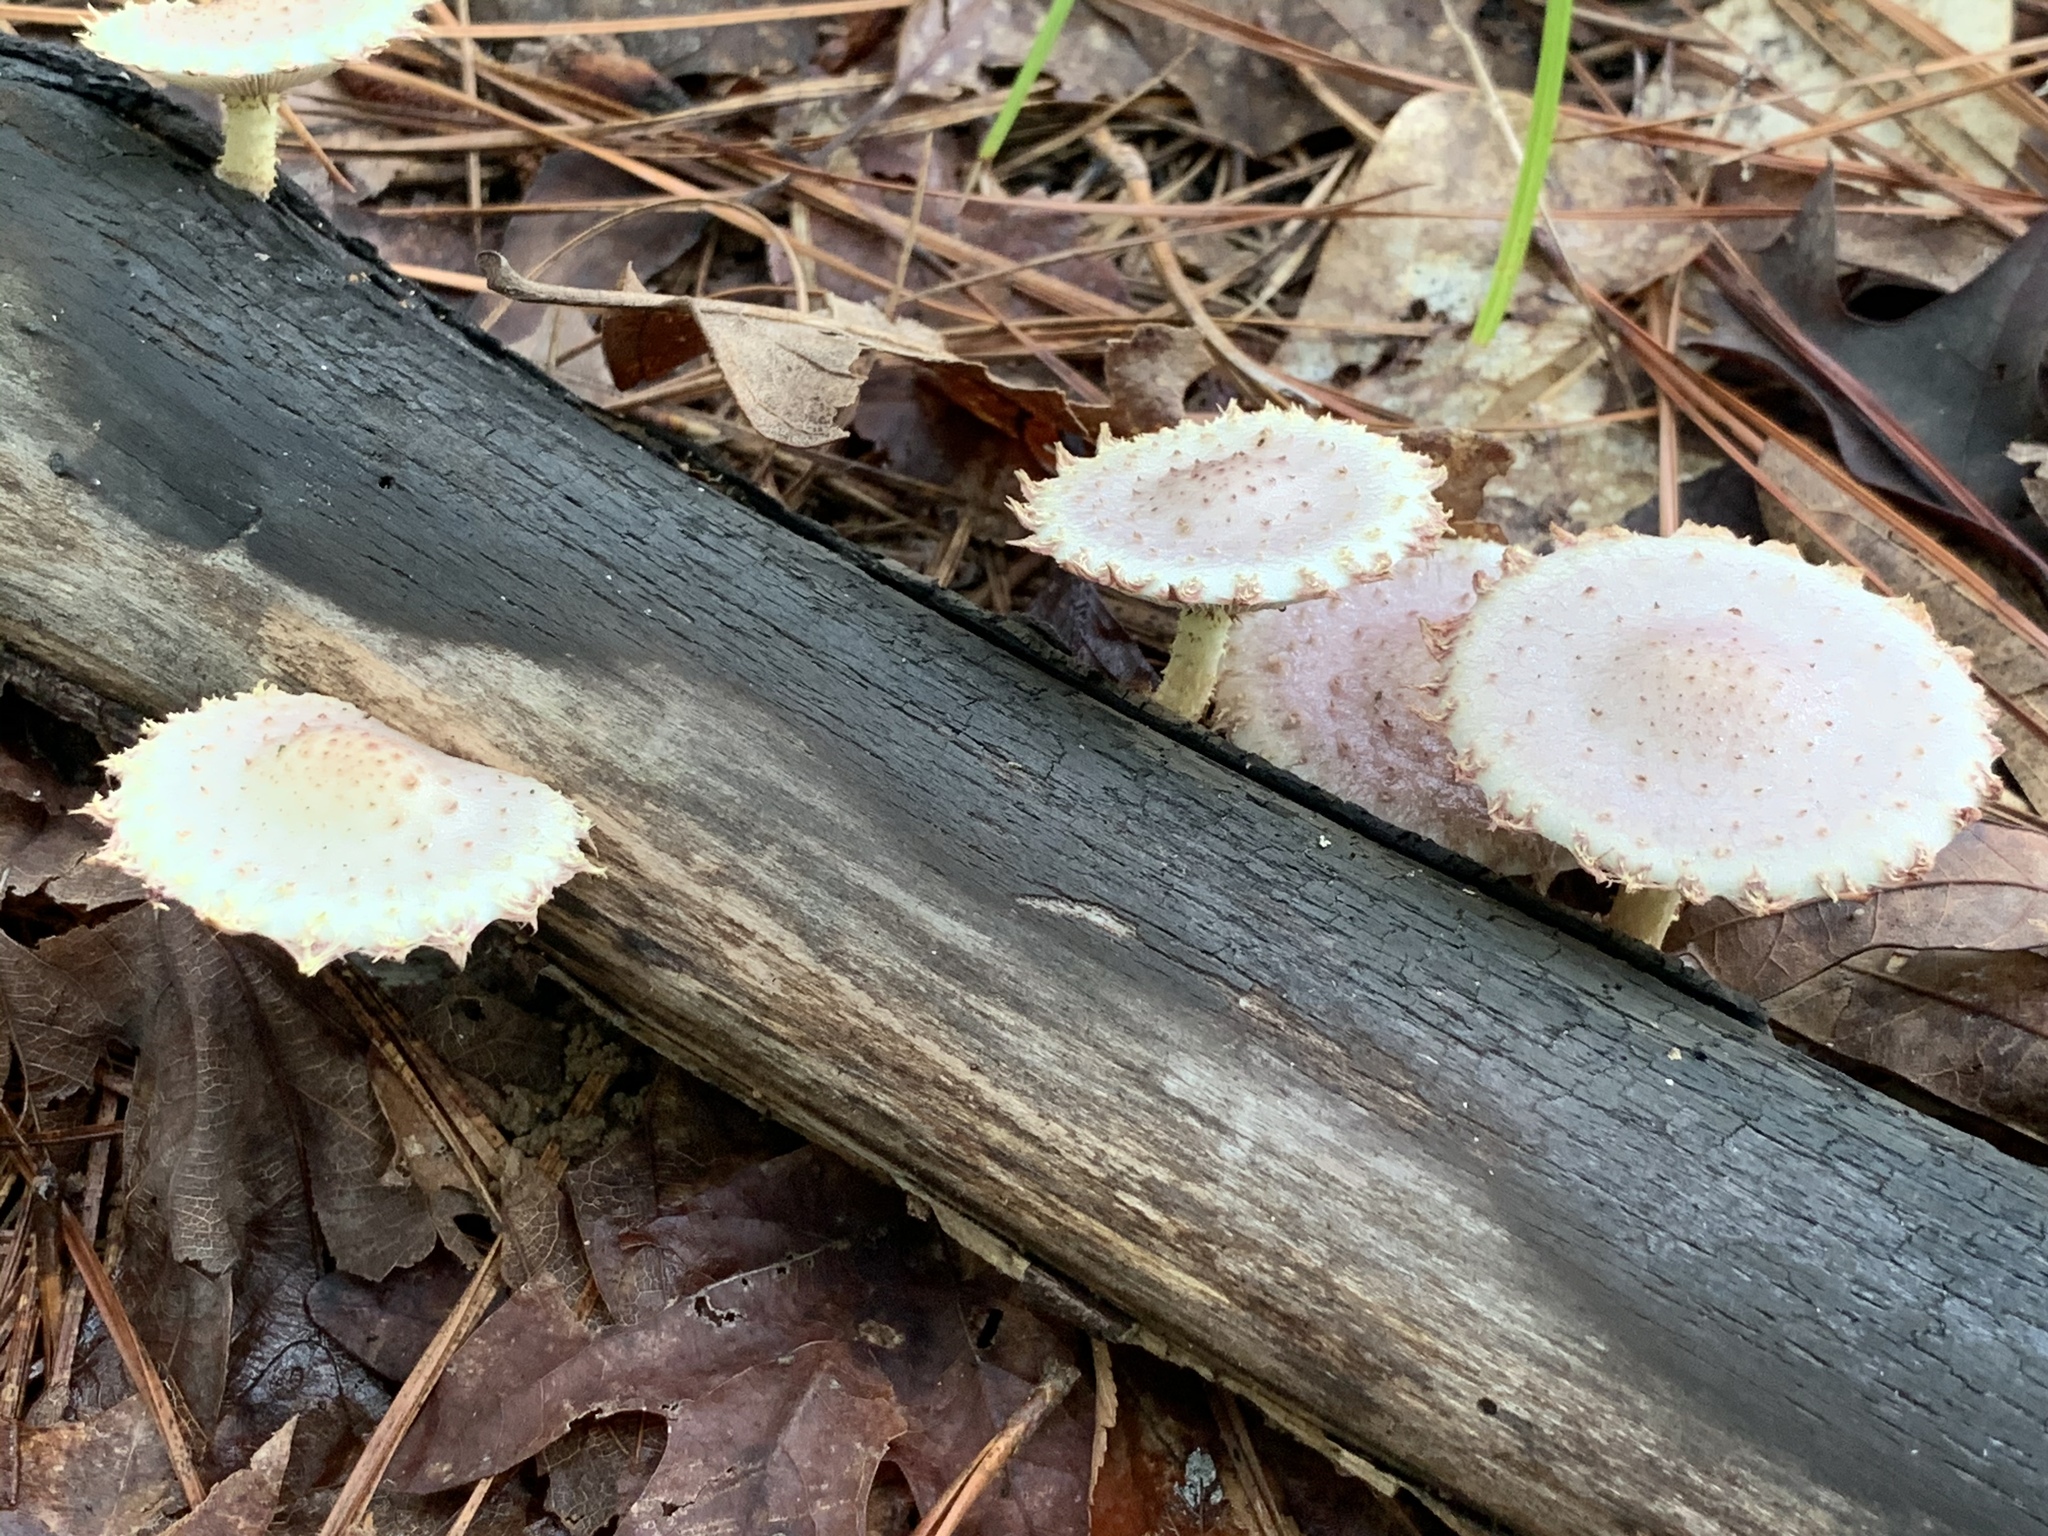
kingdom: Fungi
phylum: Basidiomycota
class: Agaricomycetes
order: Agaricales
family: Strophariaceae
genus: Pholiota
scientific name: Pholiota polychroa
